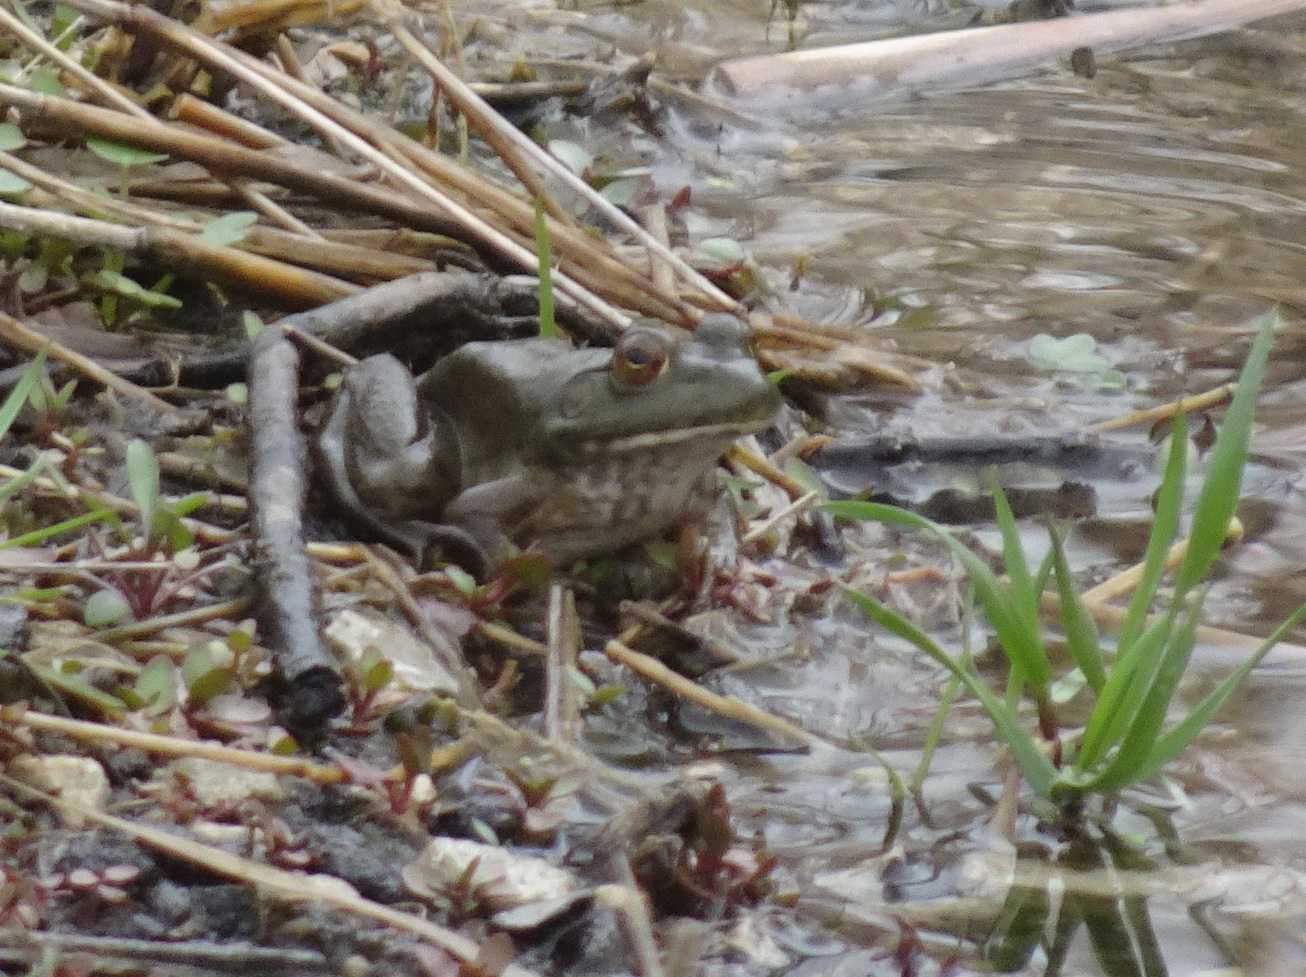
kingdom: Animalia
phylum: Chordata
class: Amphibia
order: Anura
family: Ranidae
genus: Lithobates
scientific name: Lithobates catesbeianus
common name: American bullfrog
